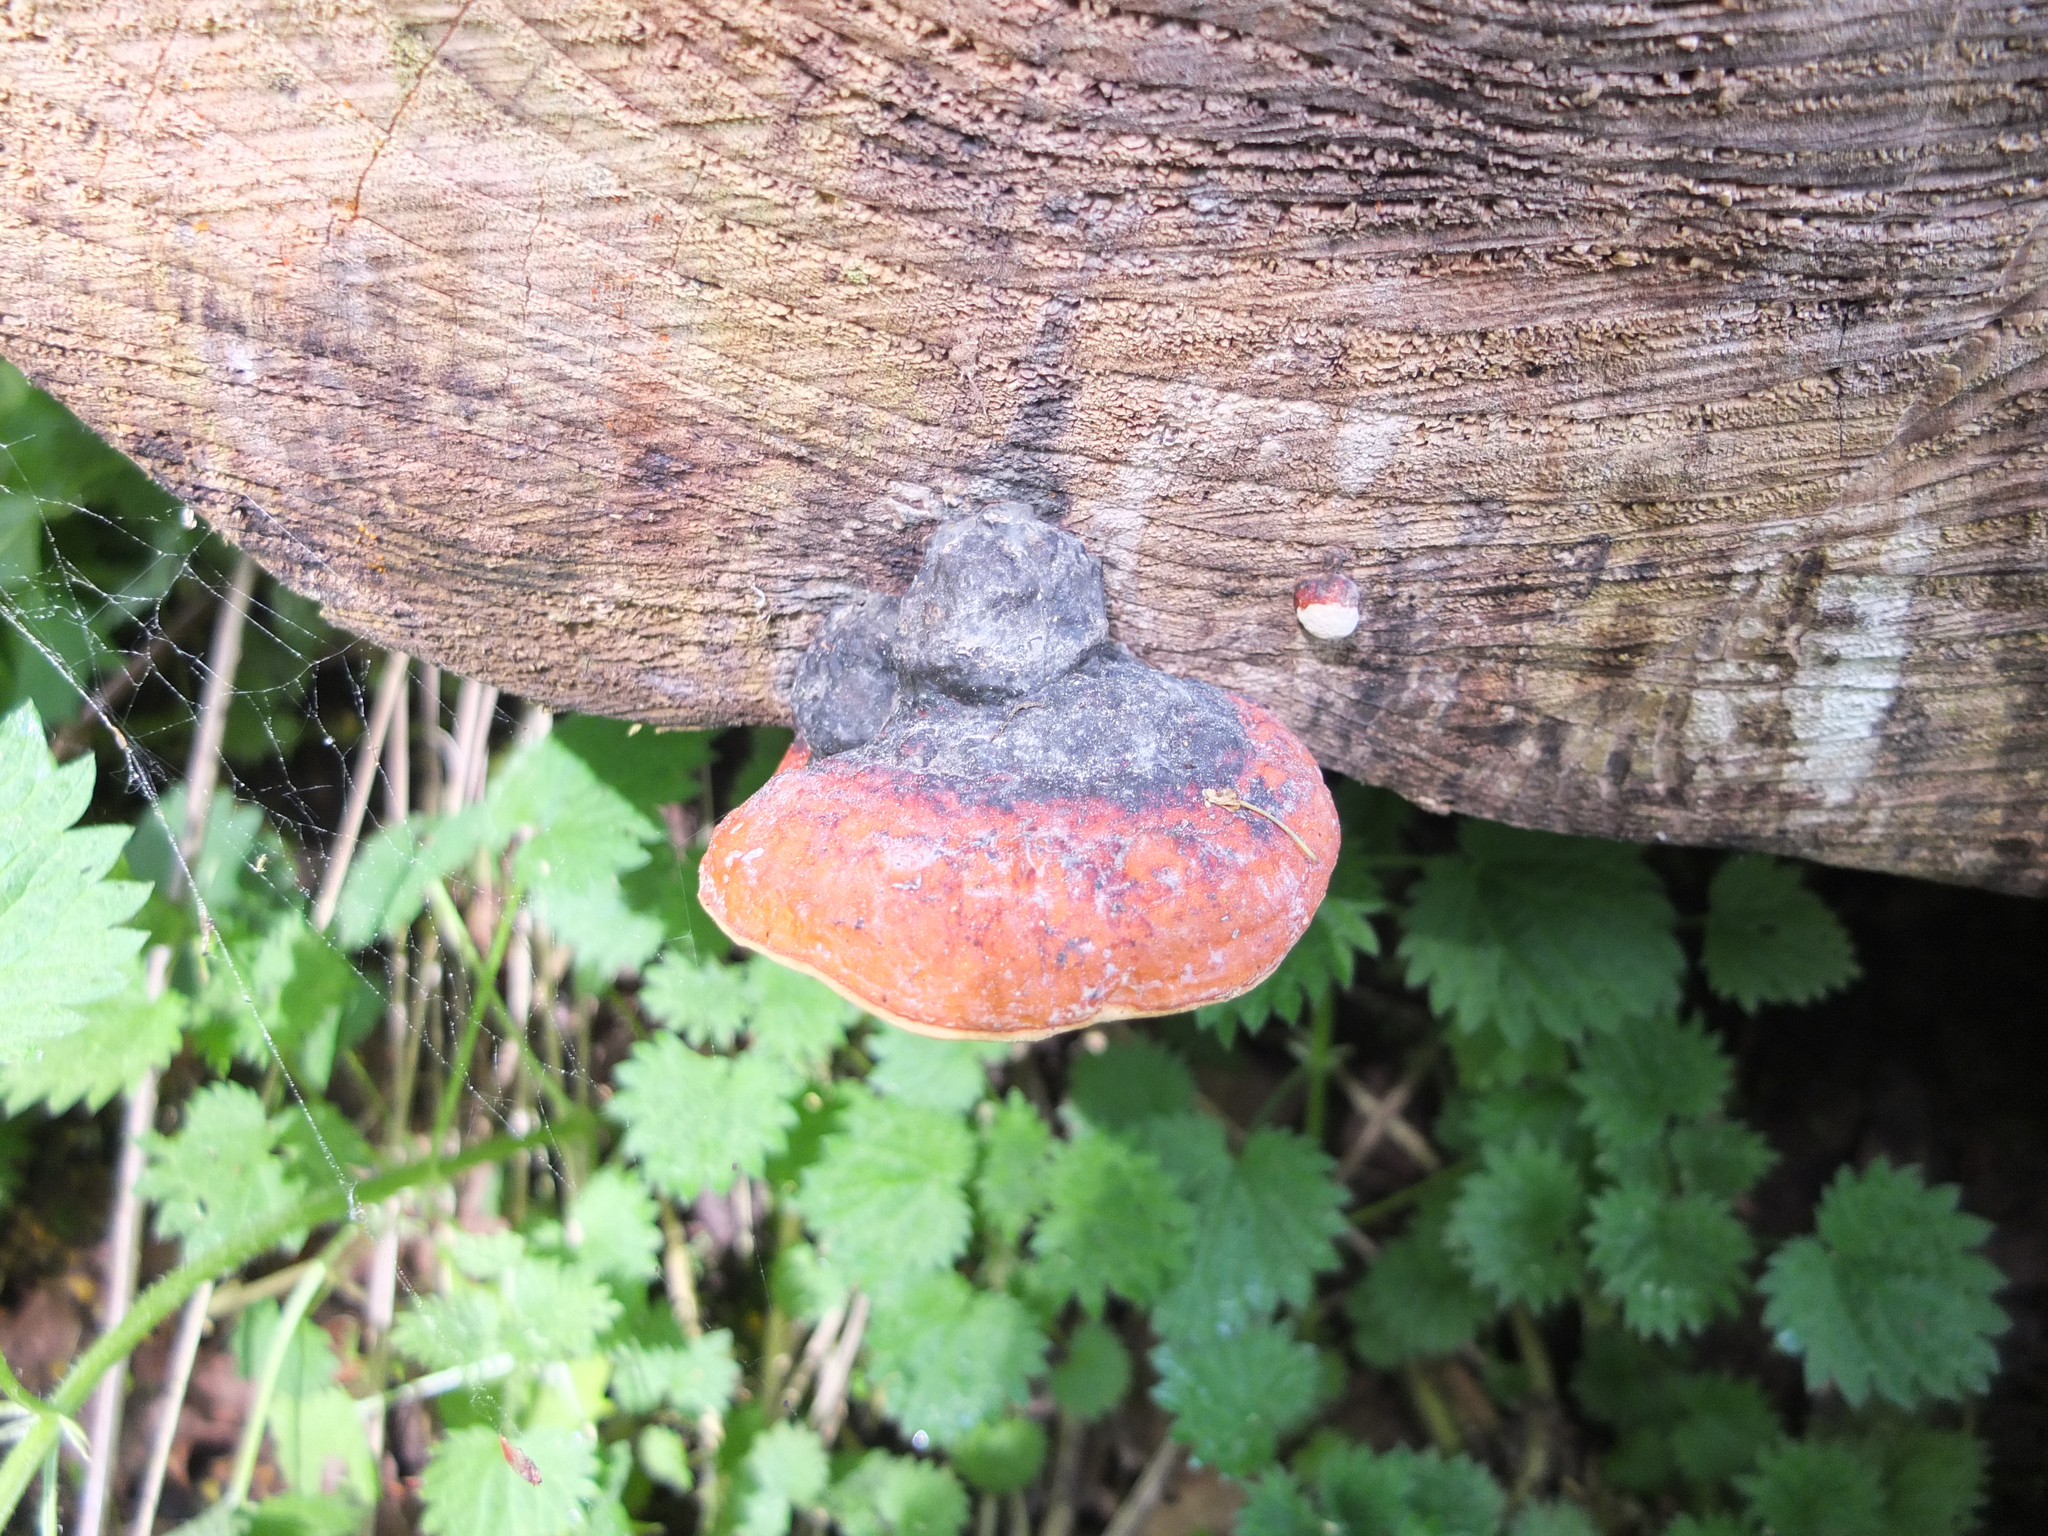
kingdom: Fungi
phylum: Basidiomycota
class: Agaricomycetes
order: Polyporales
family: Fomitopsidaceae
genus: Fomitopsis
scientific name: Fomitopsis pinicola
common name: Red-belted bracket
